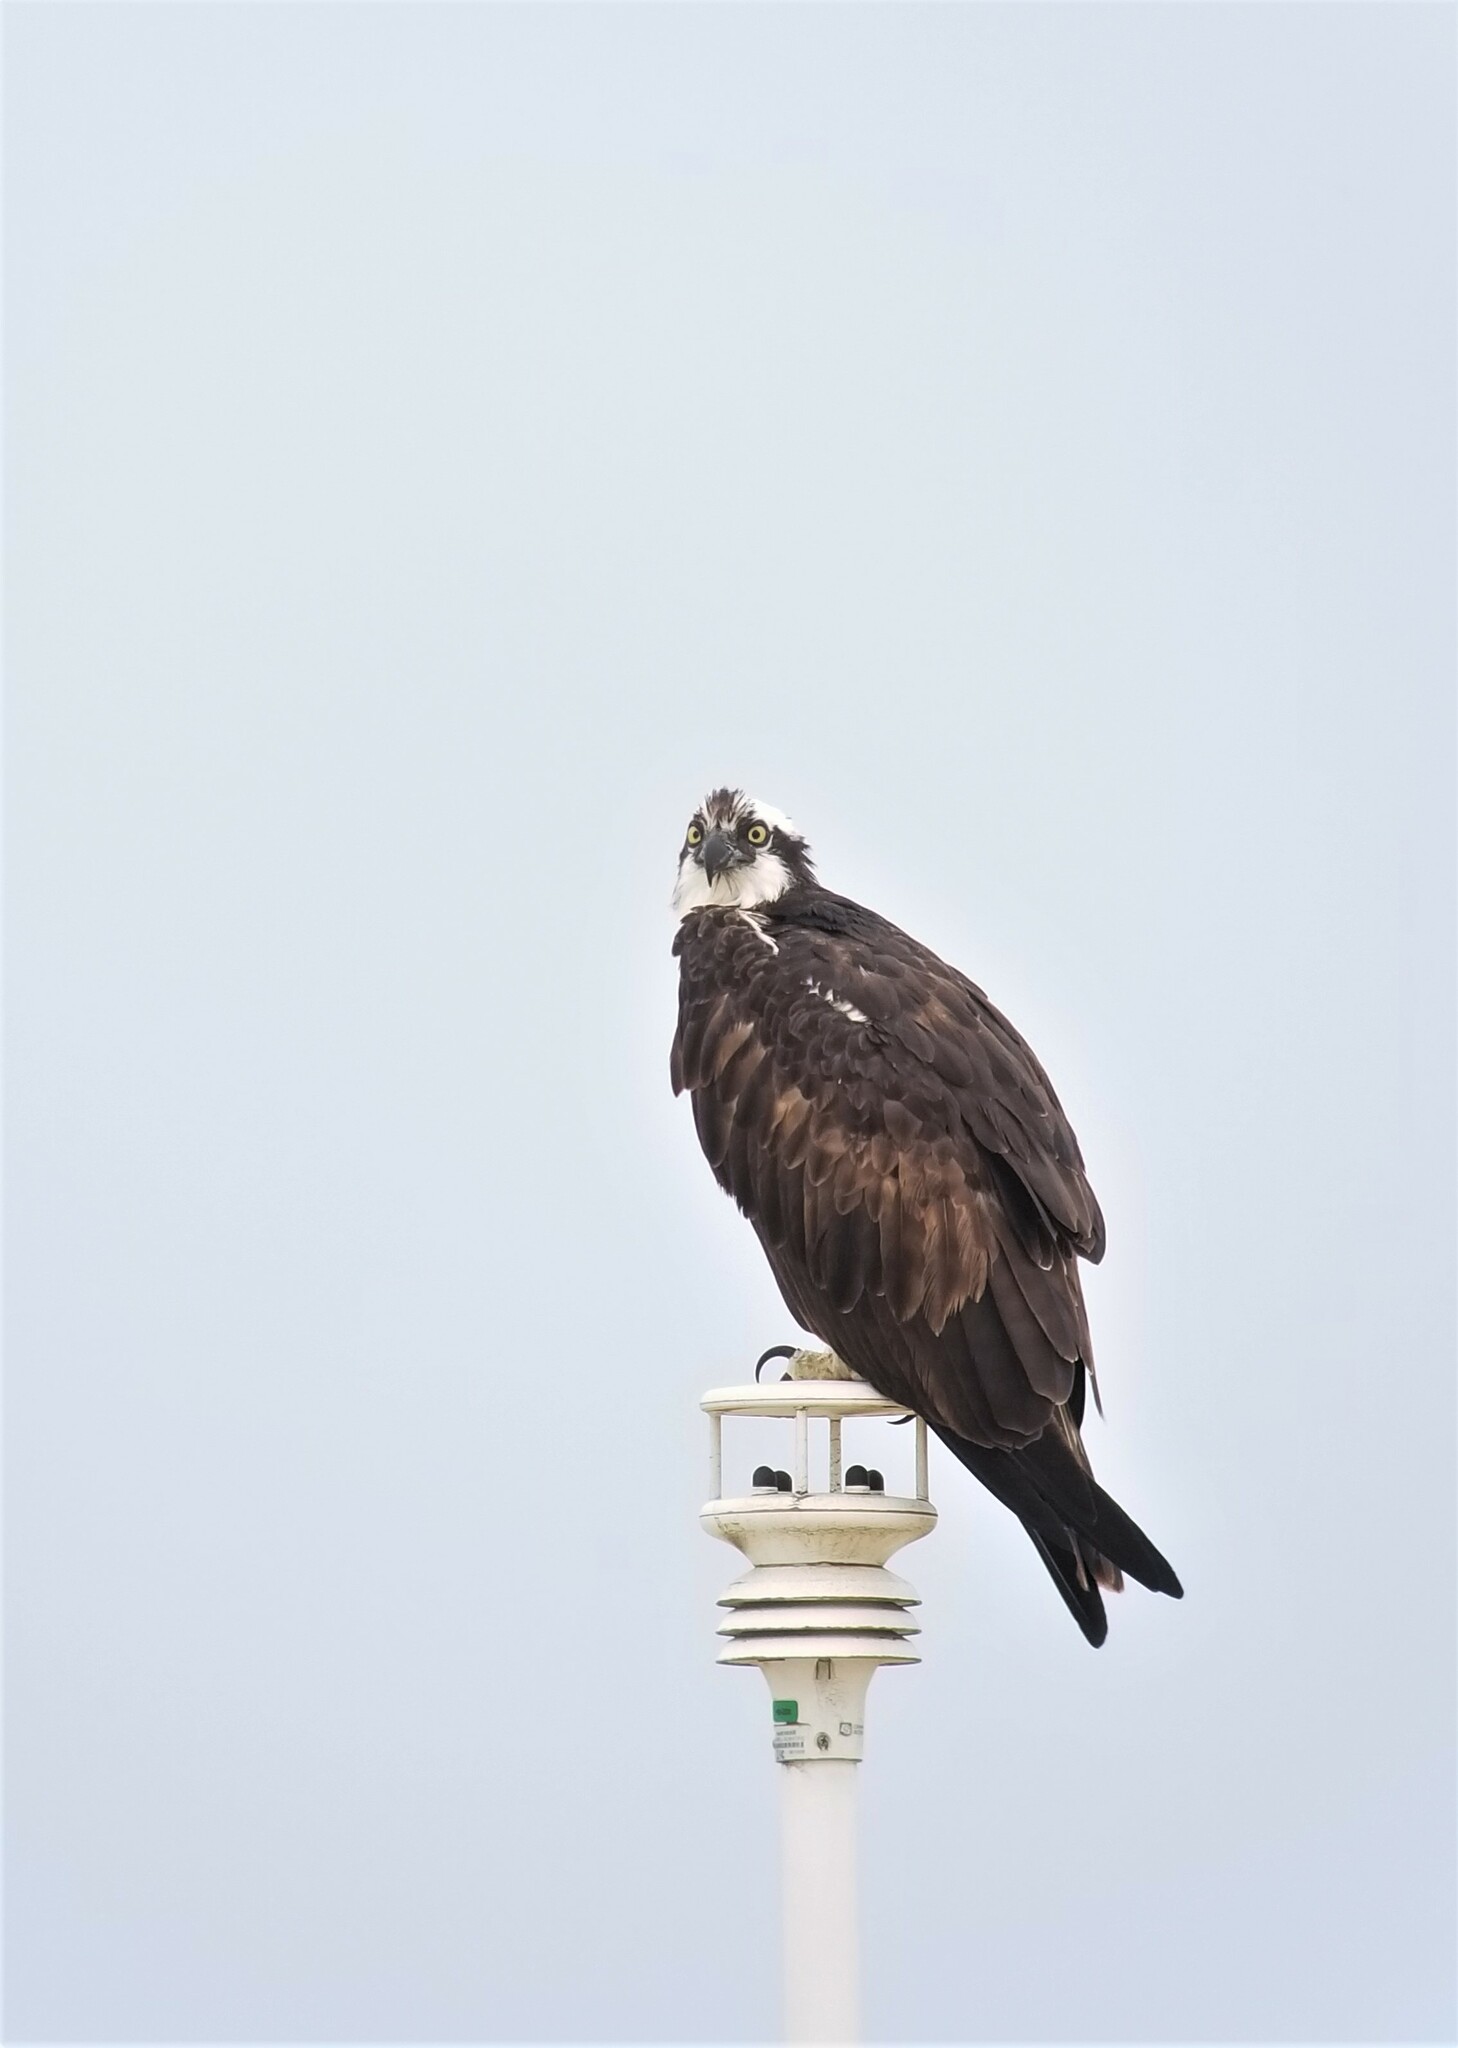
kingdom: Animalia
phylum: Chordata
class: Aves
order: Accipitriformes
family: Pandionidae
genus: Pandion
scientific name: Pandion haliaetus
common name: Osprey
